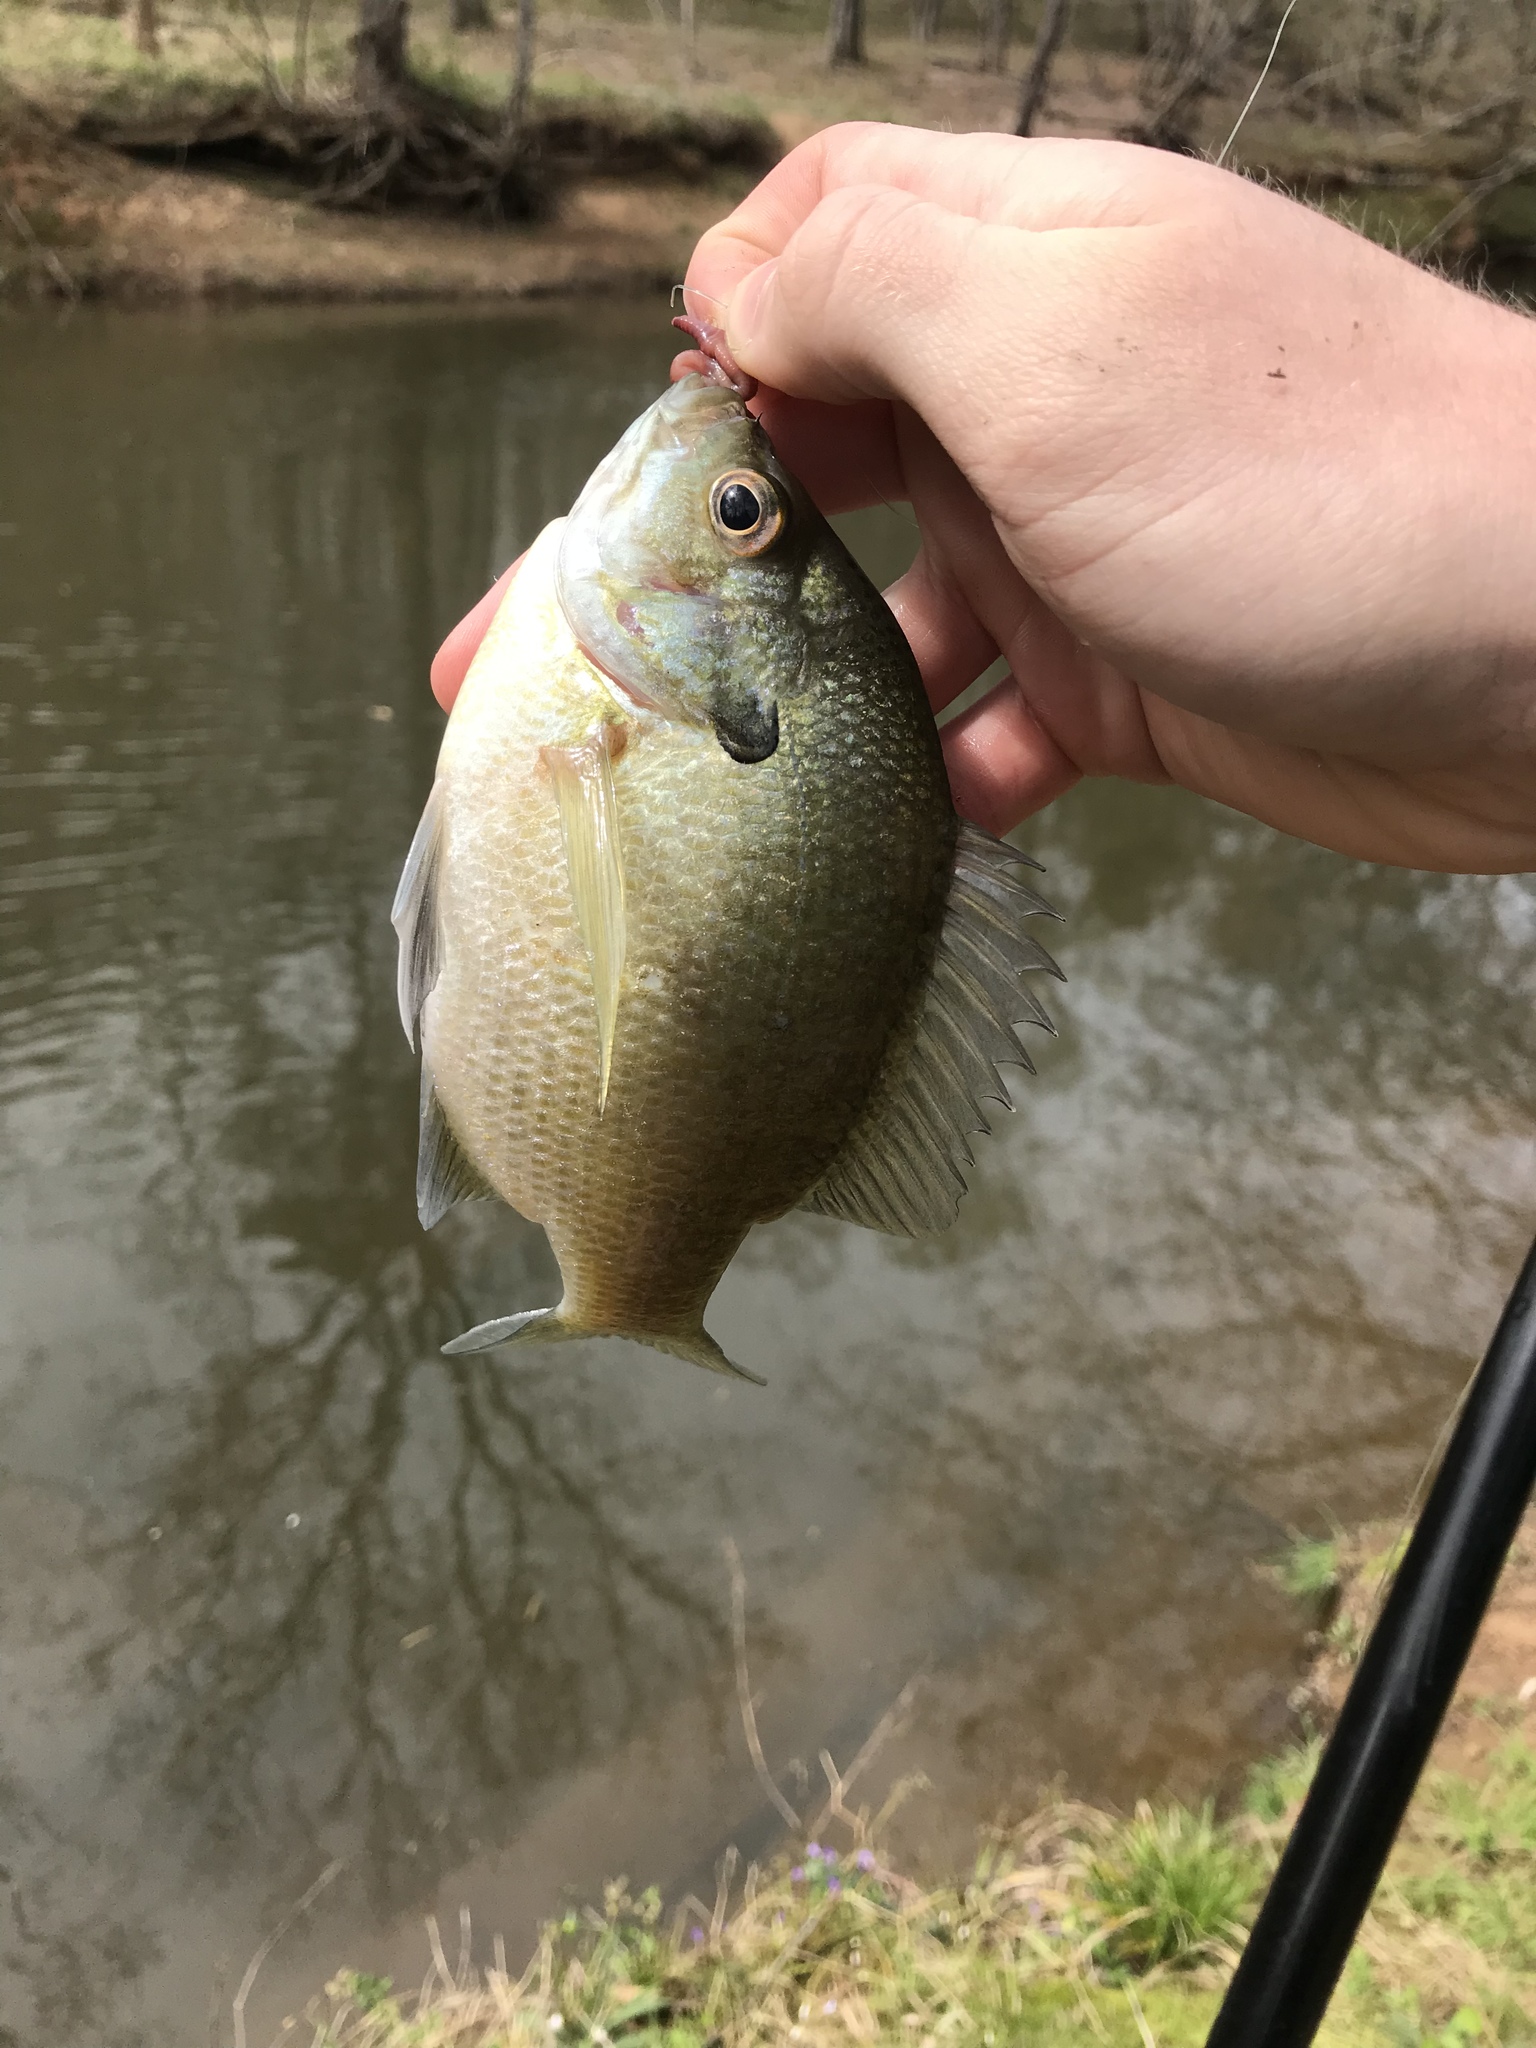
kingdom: Animalia
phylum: Chordata
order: Perciformes
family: Centrarchidae
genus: Lepomis
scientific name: Lepomis macrochirus
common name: Bluegill
